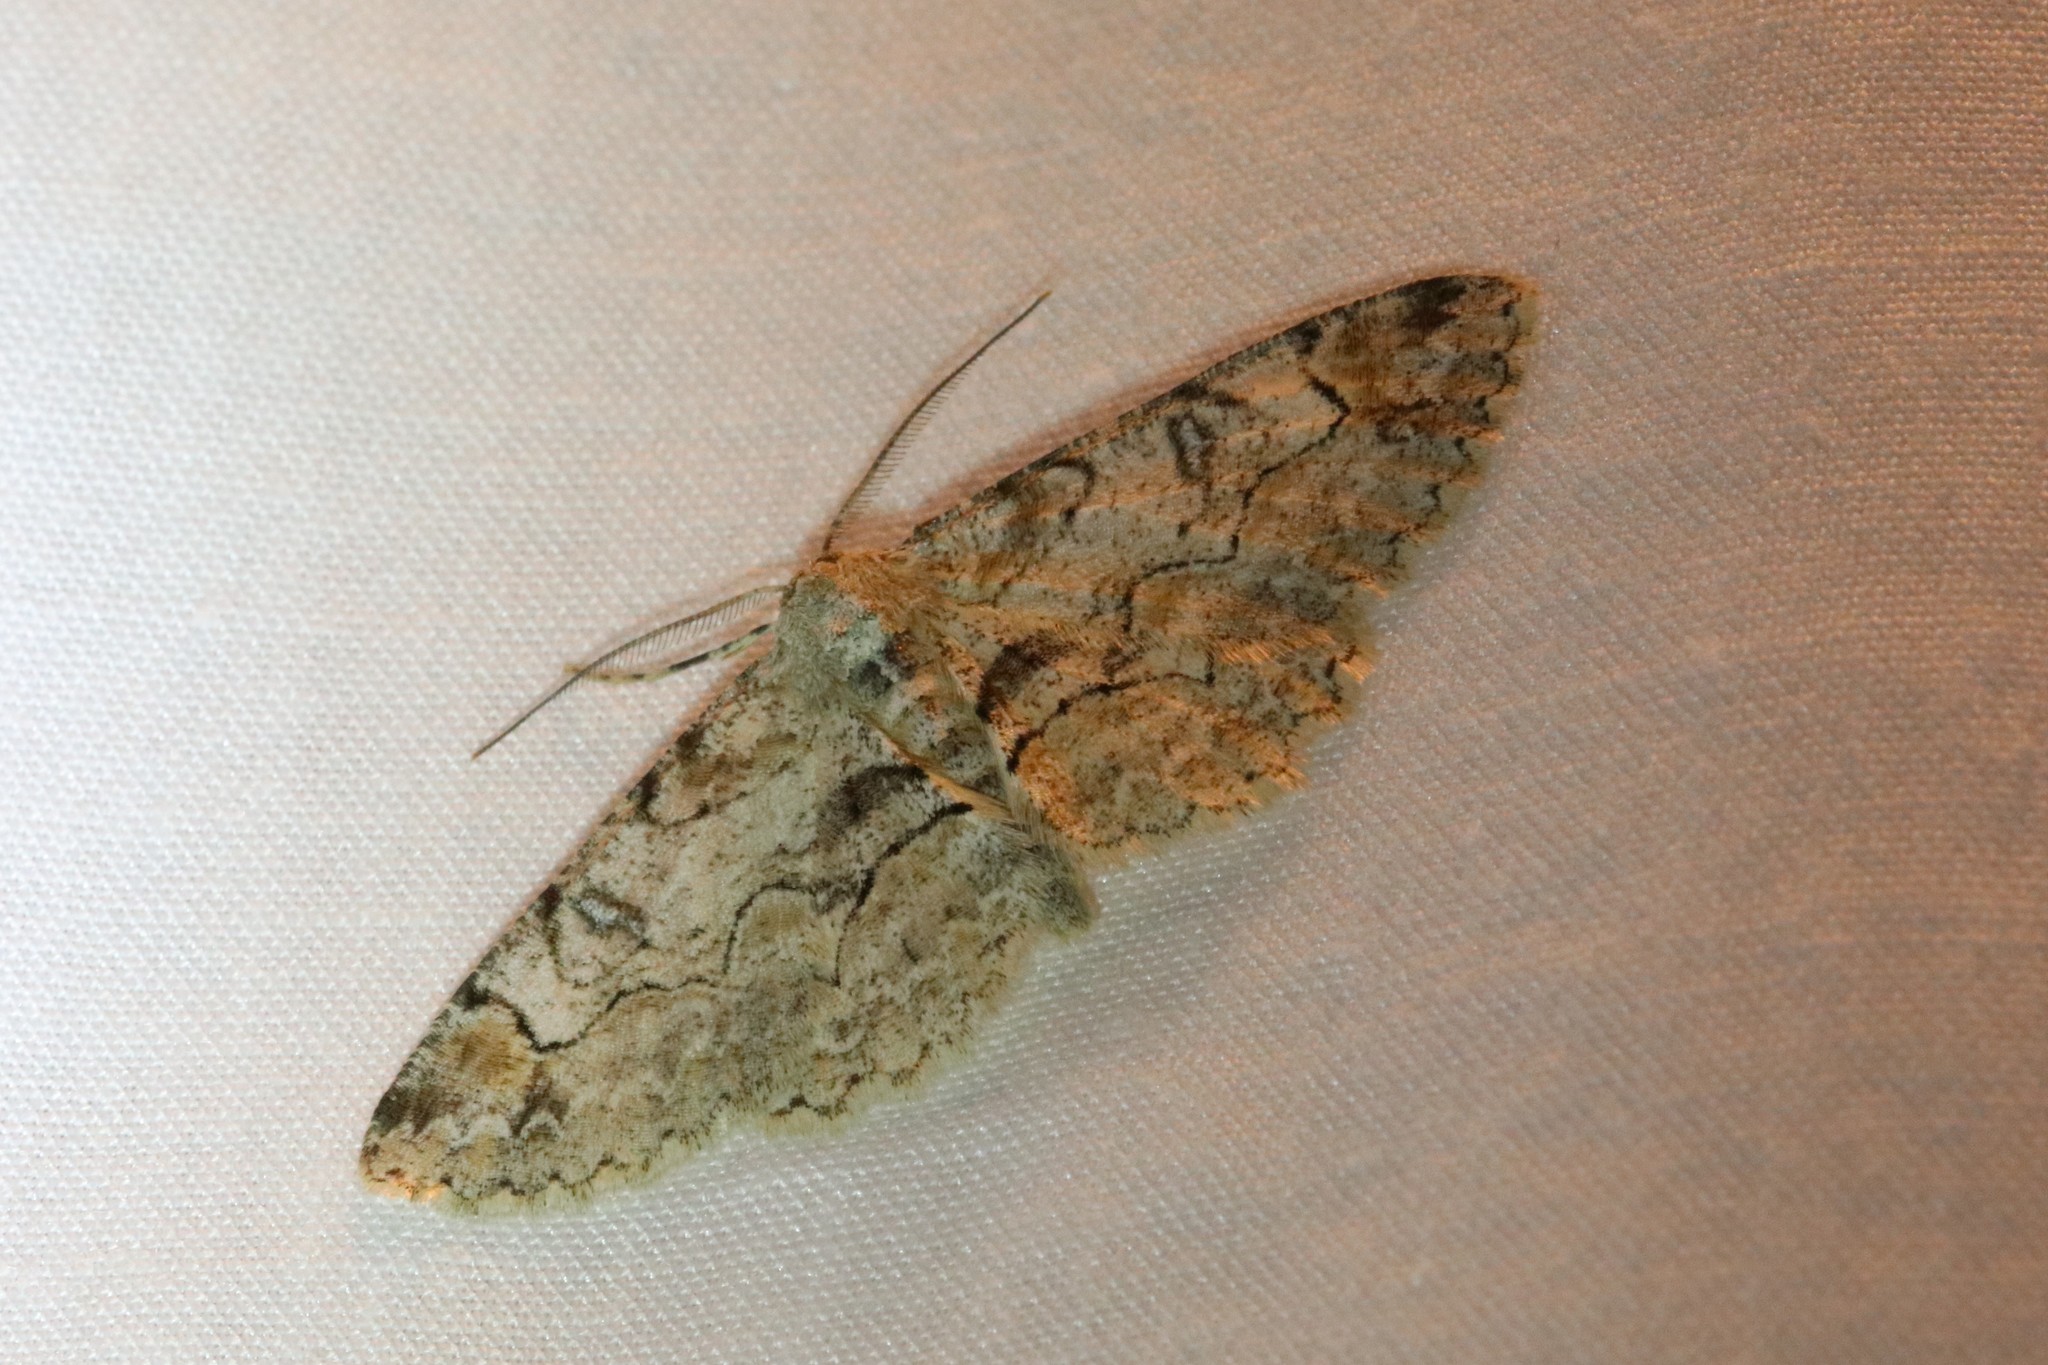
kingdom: Animalia
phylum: Arthropoda
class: Insecta
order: Lepidoptera
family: Geometridae
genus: Iridopsis
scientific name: Iridopsis larvaria
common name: Bent-line gray
